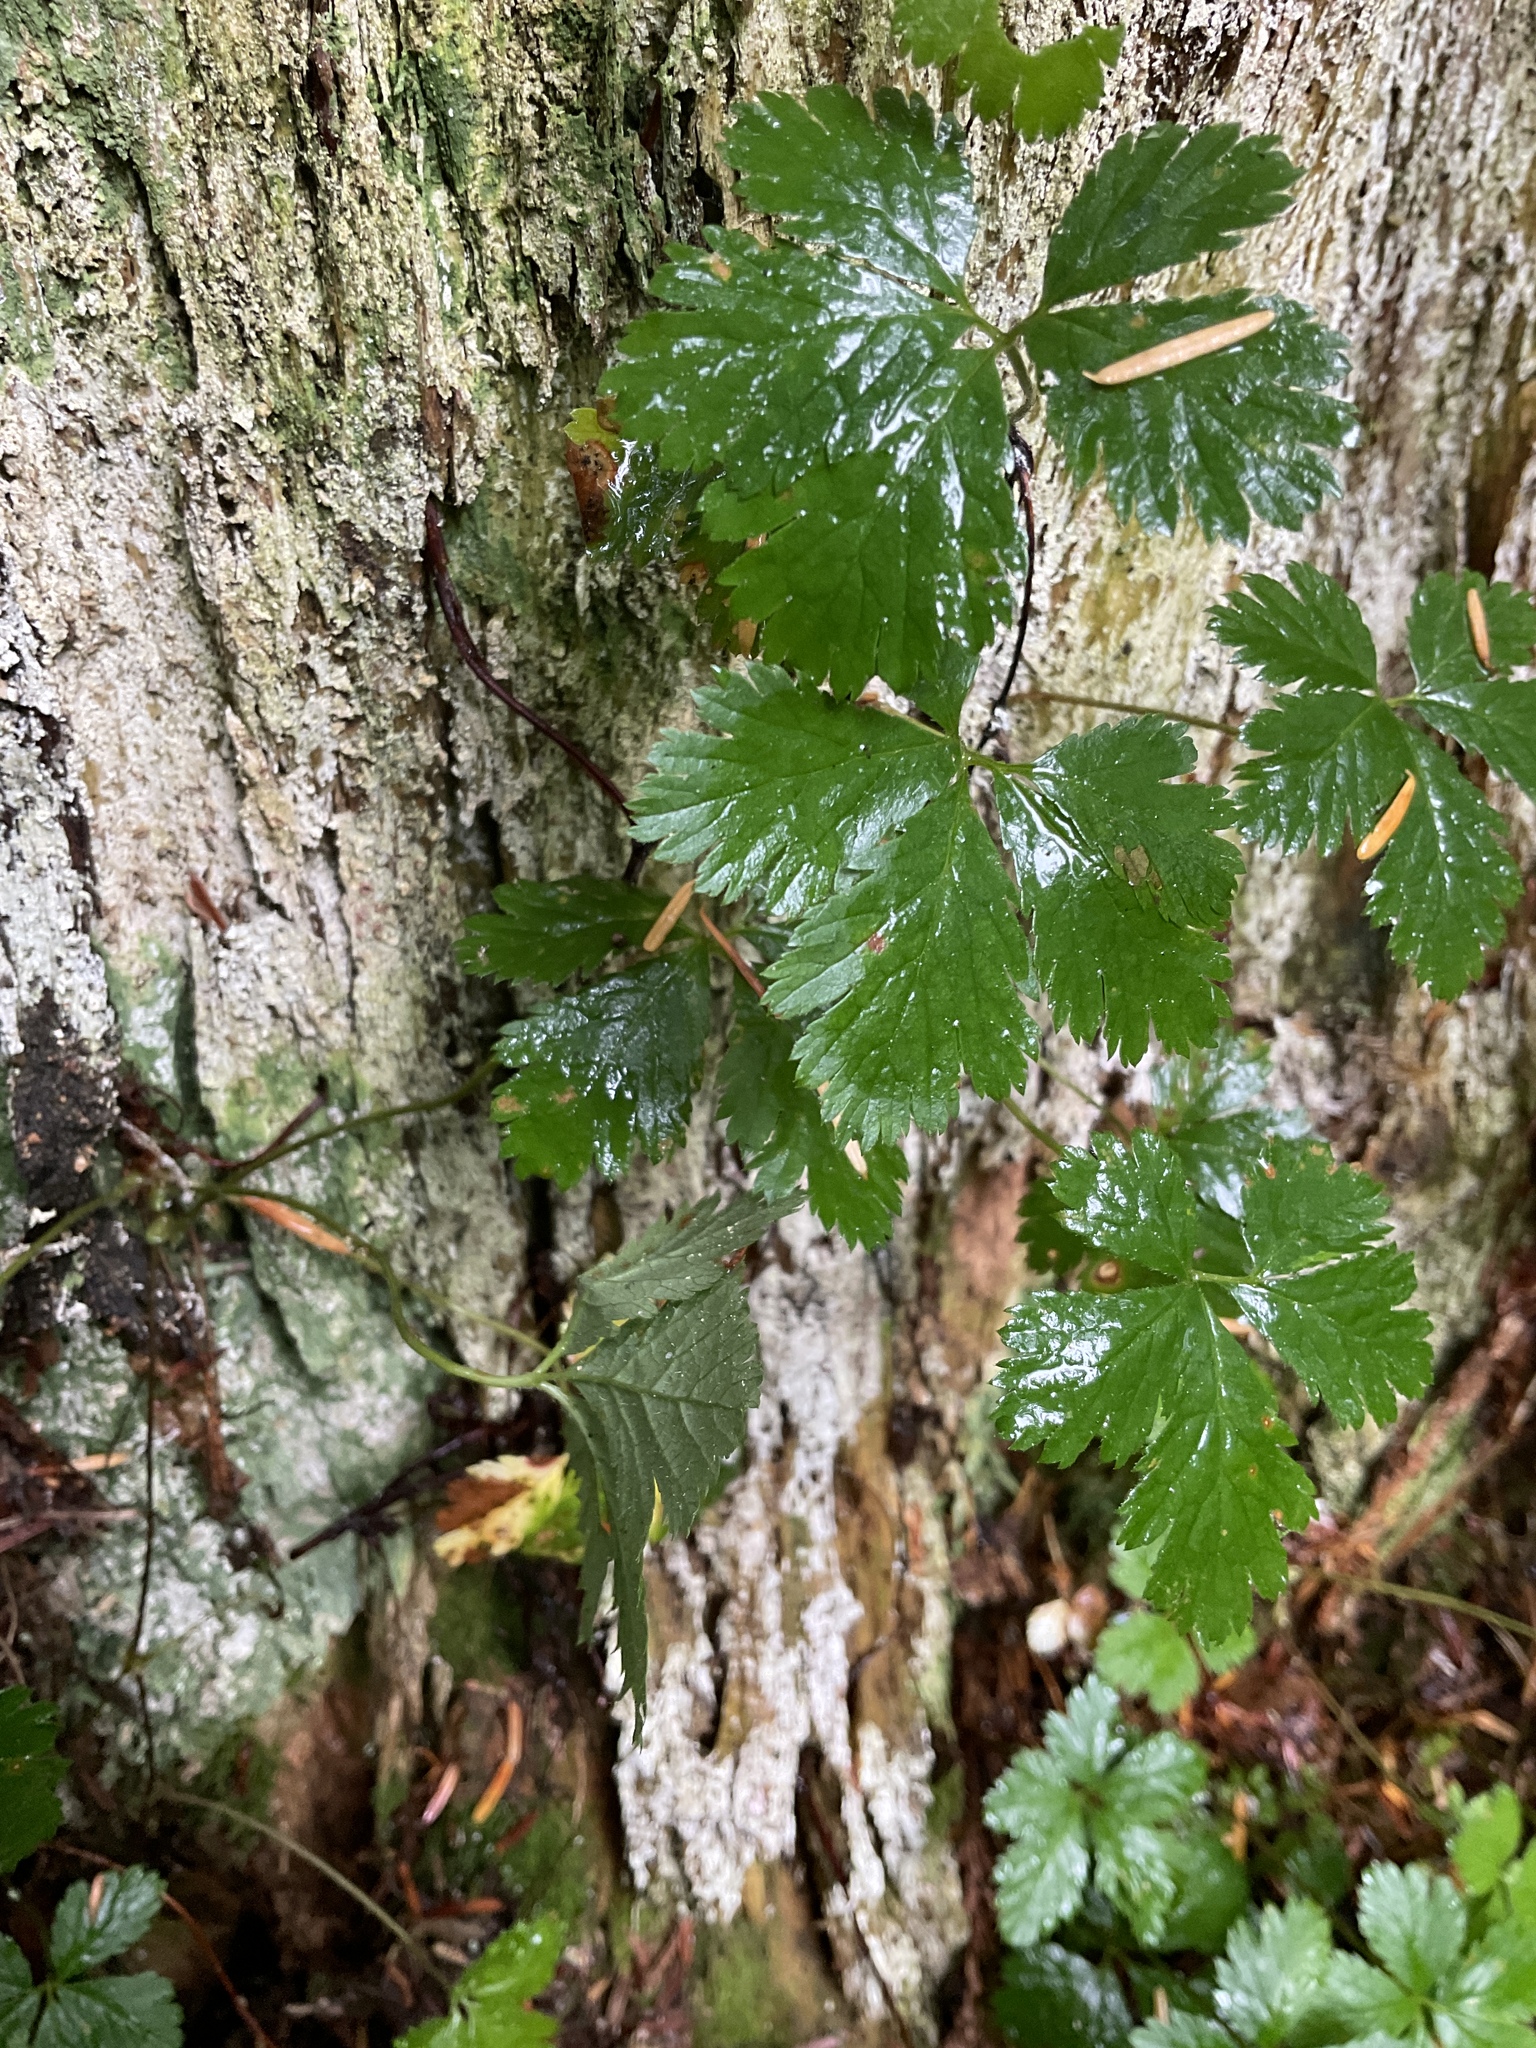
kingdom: Plantae
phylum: Tracheophyta
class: Magnoliopsida
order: Rosales
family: Rosaceae
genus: Rubus
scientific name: Rubus pedatus
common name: Creeping raspberry
